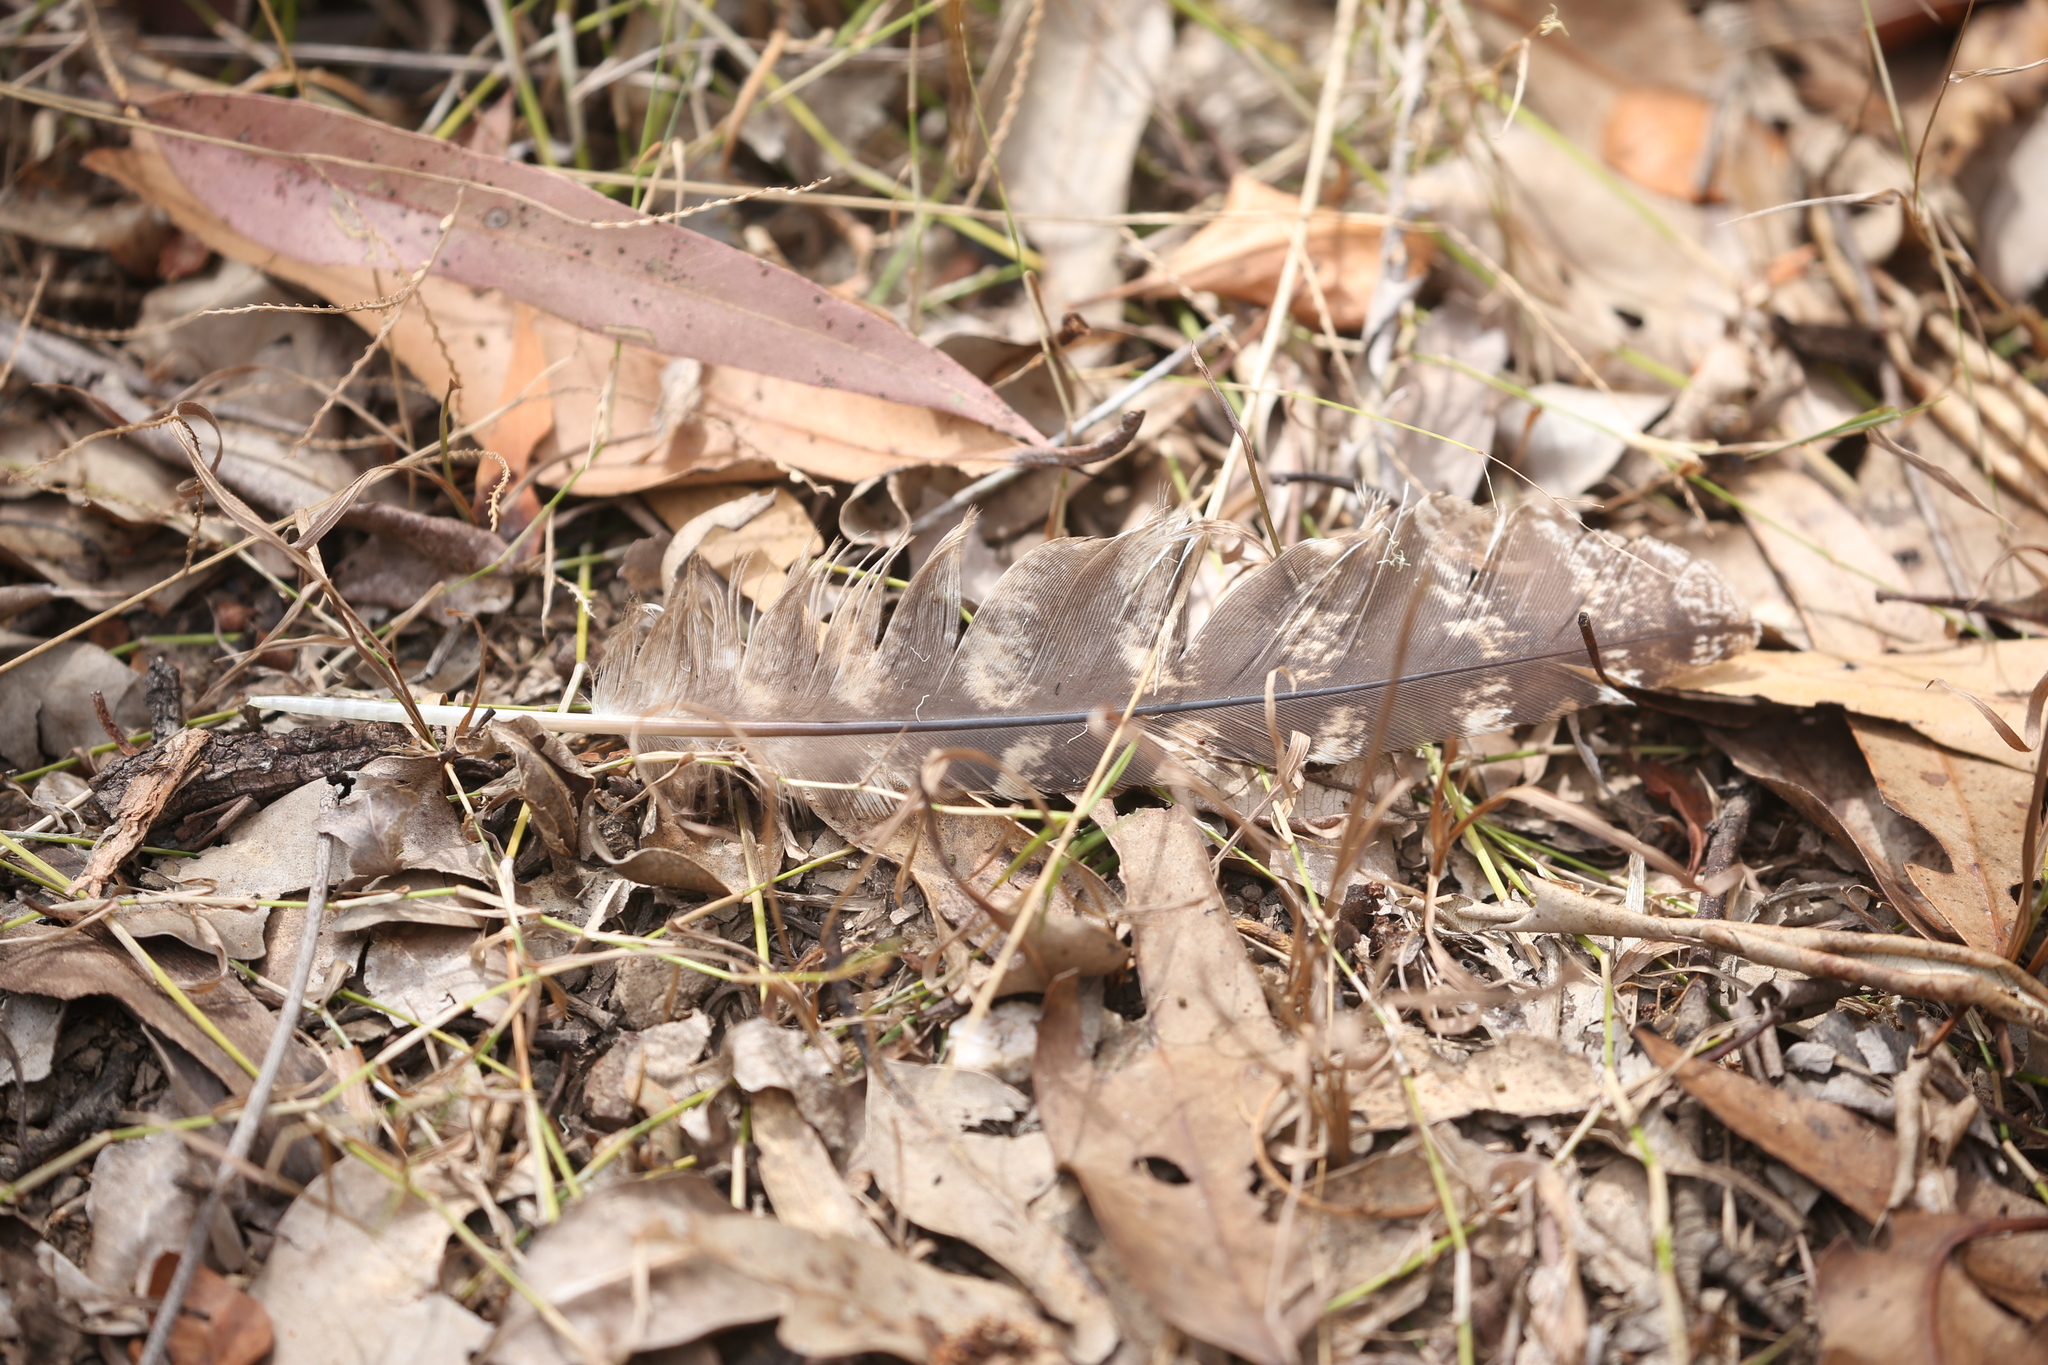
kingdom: Animalia
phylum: Chordata
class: Aves
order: Caprimulgiformes
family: Podargidae
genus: Podargus
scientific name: Podargus strigoides
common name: Tawny frogmouth
